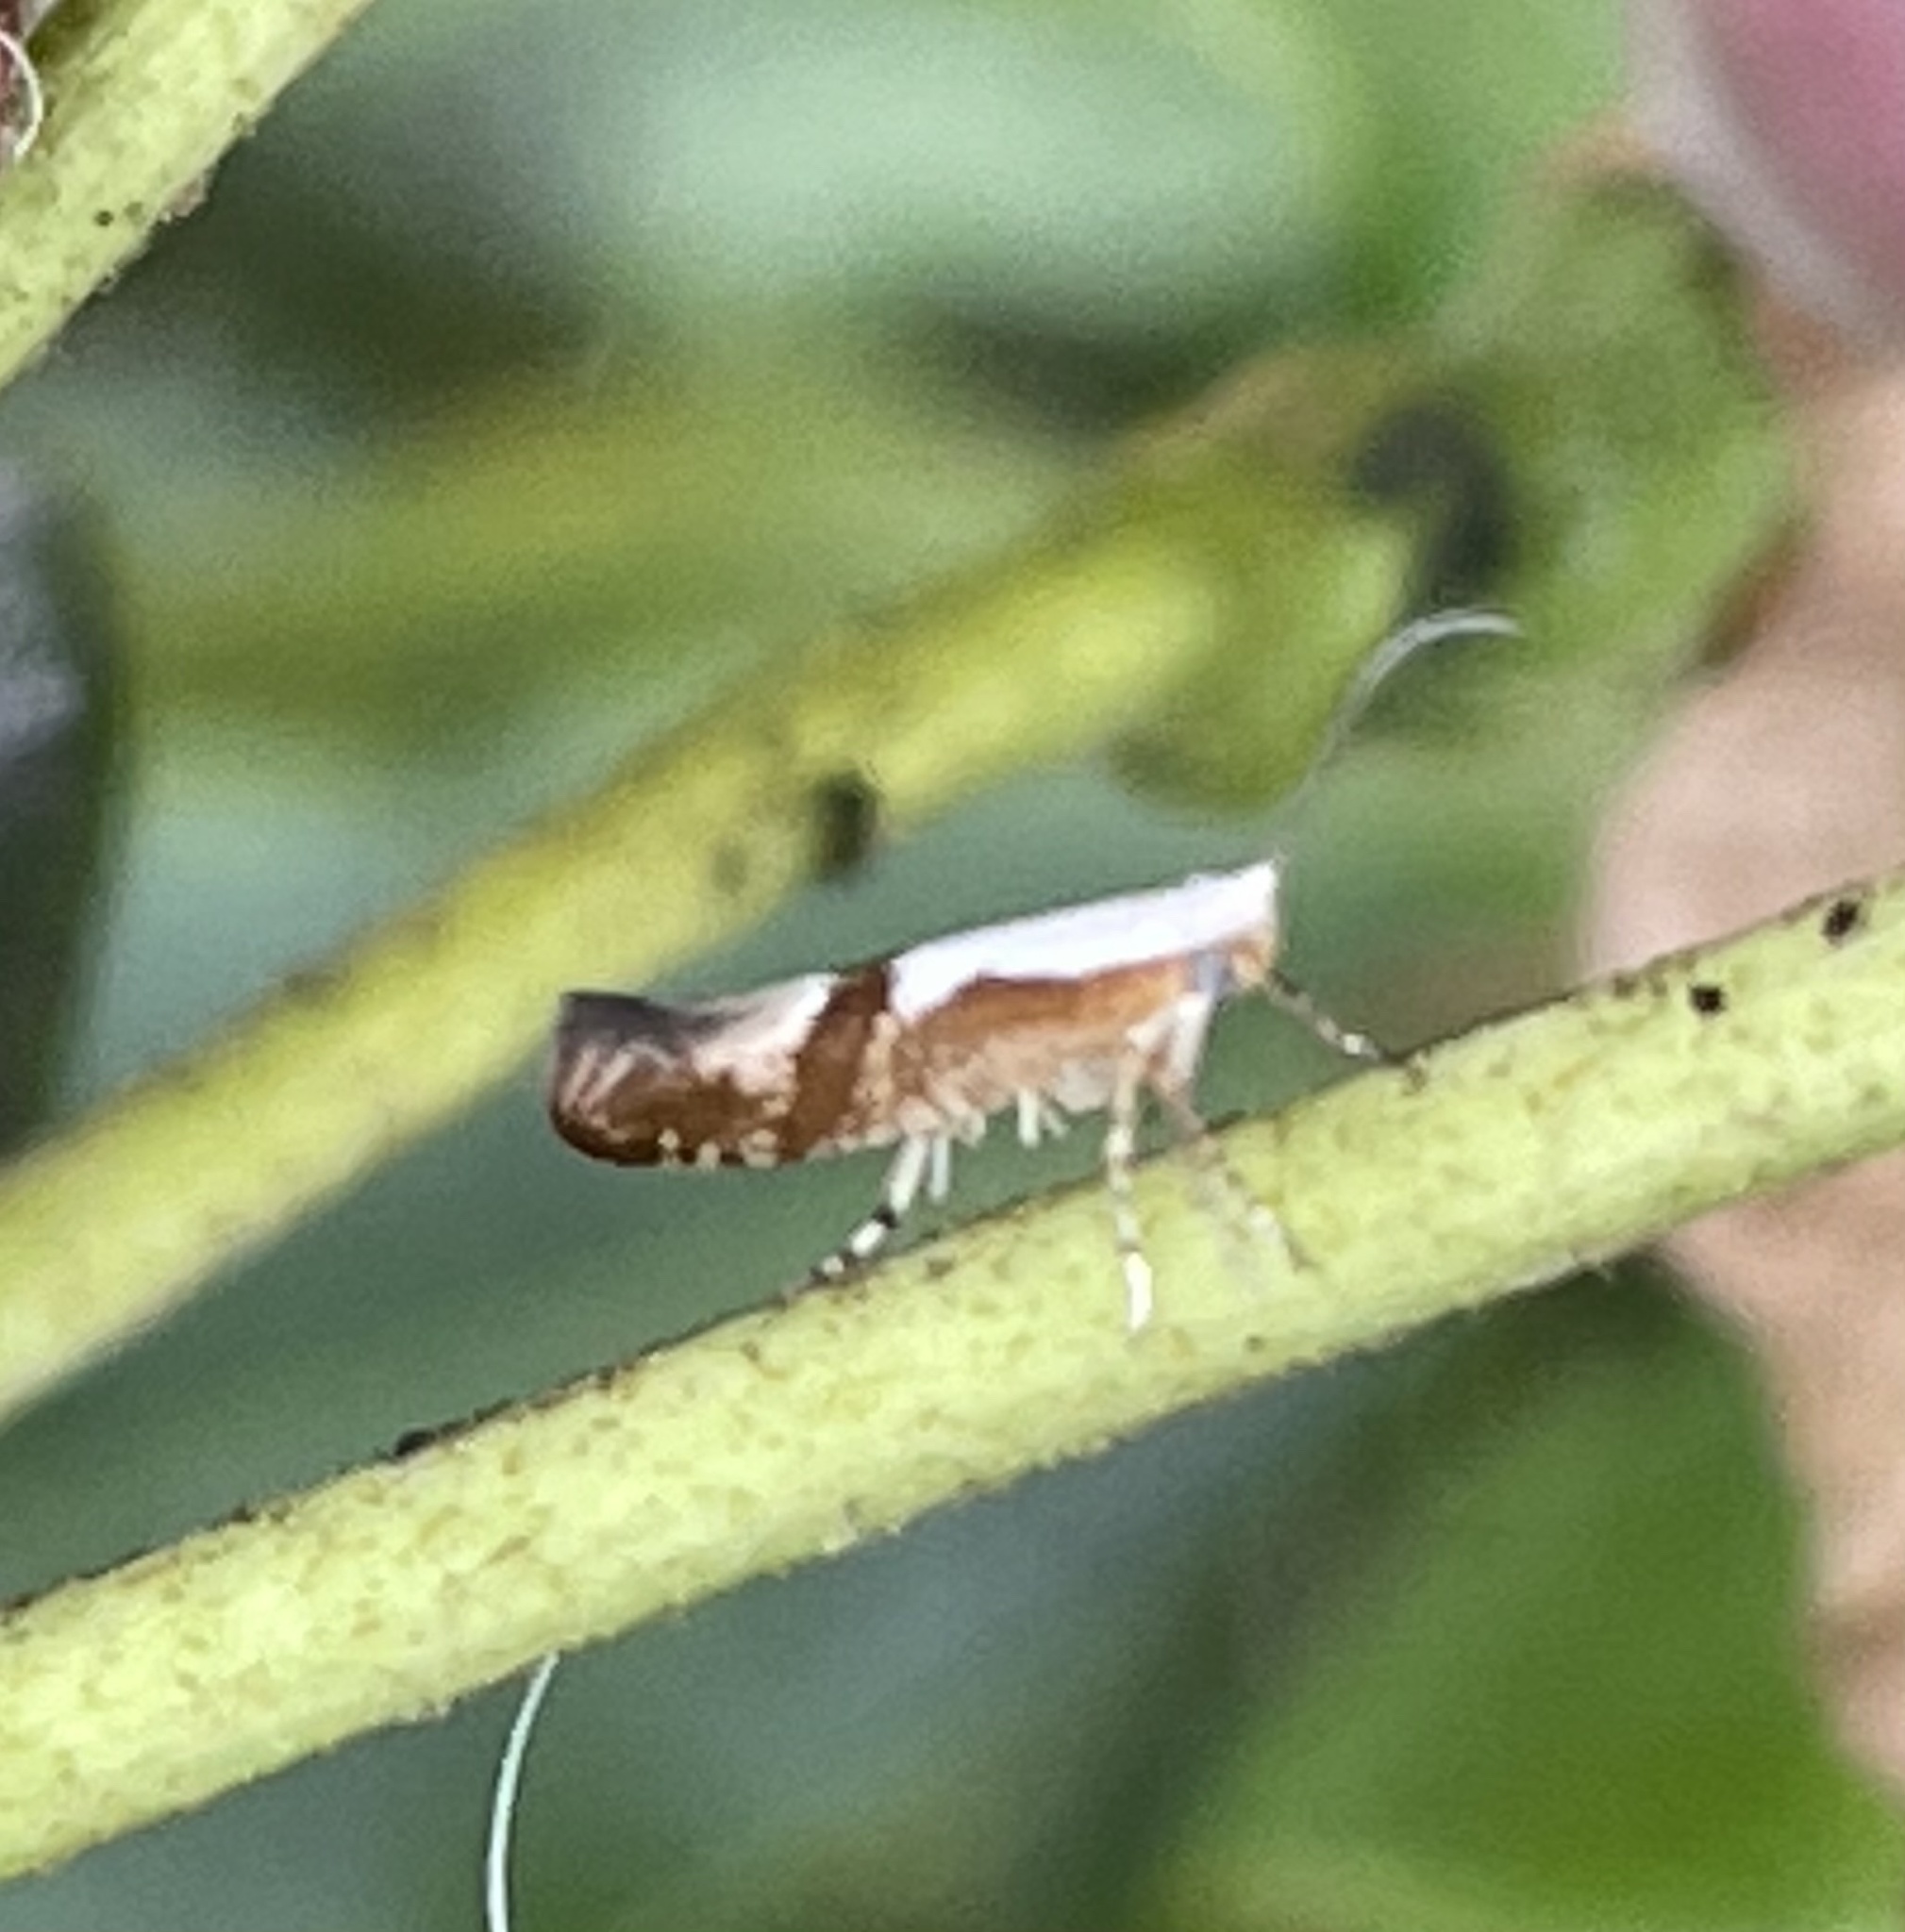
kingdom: Animalia
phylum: Arthropoda
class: Insecta
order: Lepidoptera
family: Argyresthiidae
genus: Argyresthia
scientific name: Argyresthia pruniella
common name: Cherry fruit moth
